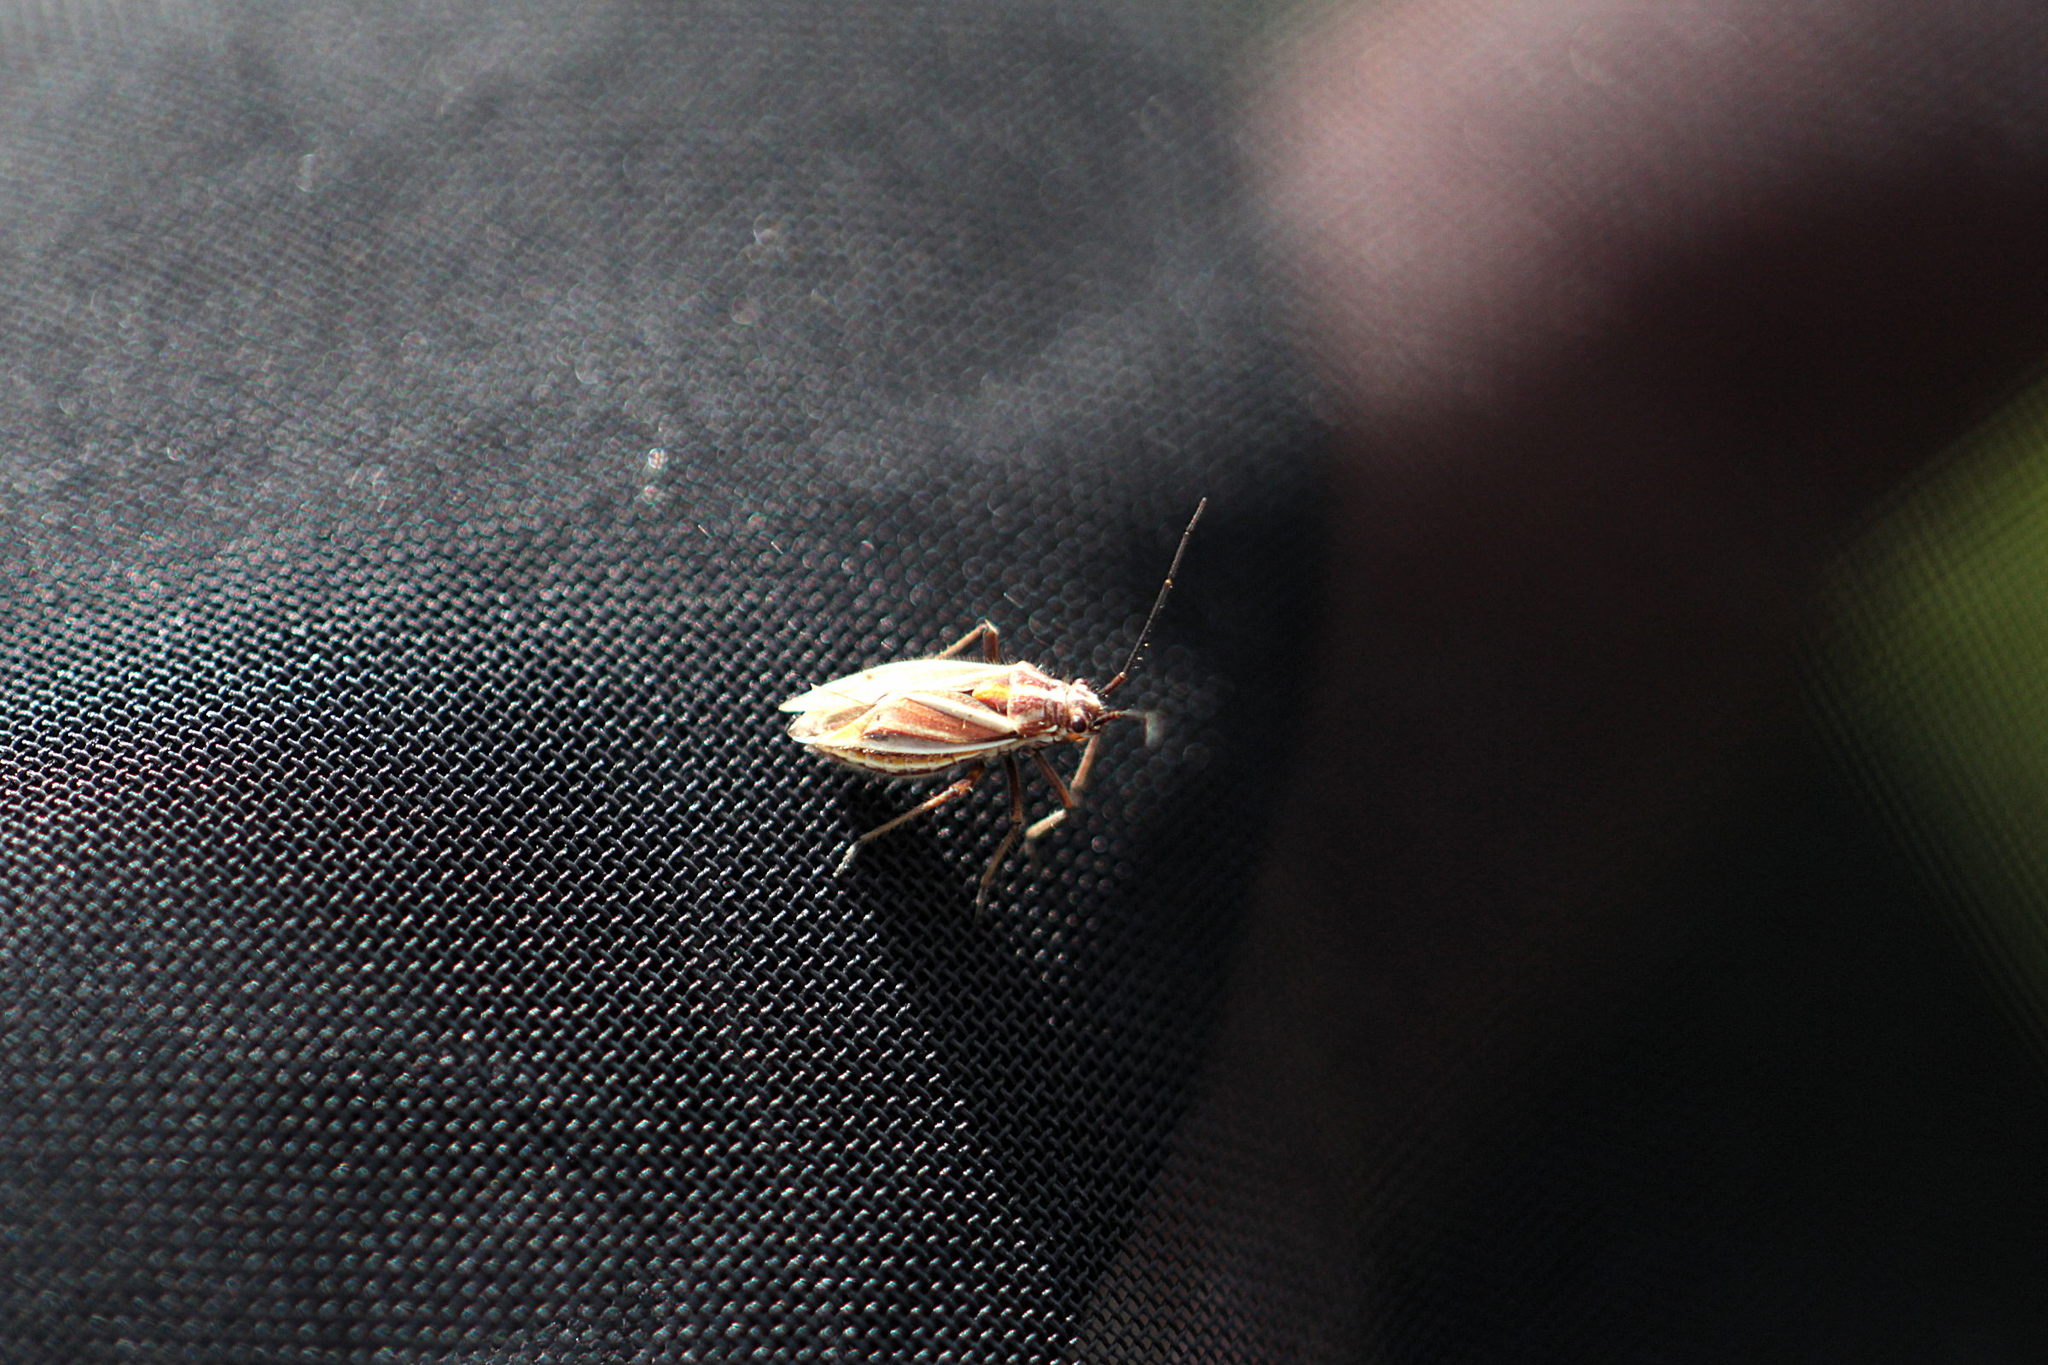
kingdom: Animalia
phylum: Arthropoda
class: Insecta
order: Hemiptera
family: Miridae
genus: Horistus
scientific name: Horistus orientalis
